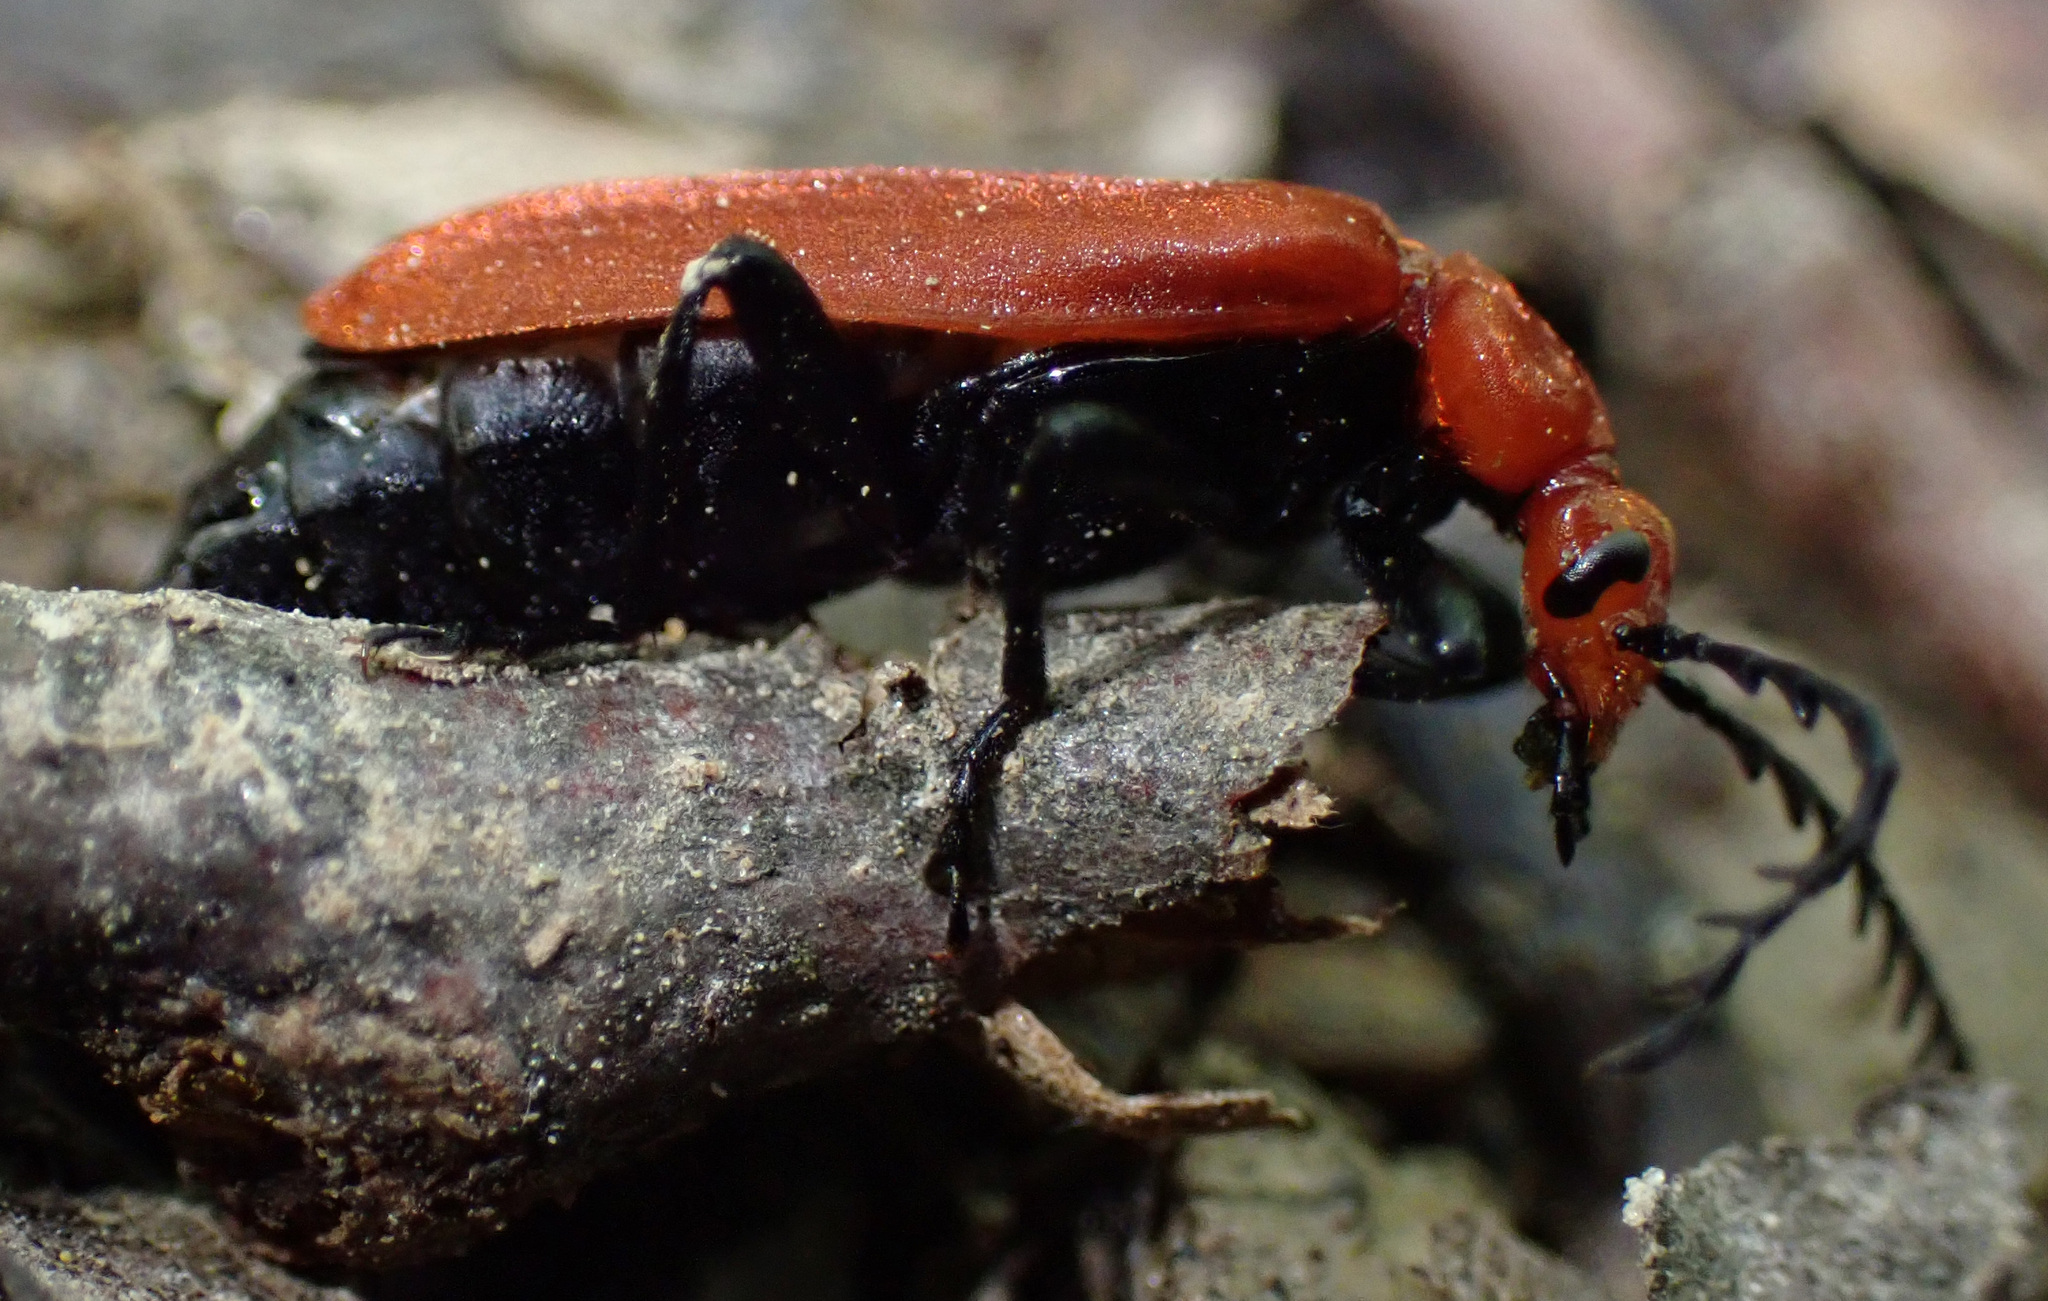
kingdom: Animalia
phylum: Arthropoda
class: Insecta
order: Coleoptera
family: Pyrochroidae
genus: Pyrochroa
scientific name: Pyrochroa serraticornis
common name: Red-headed cardinal beetle
